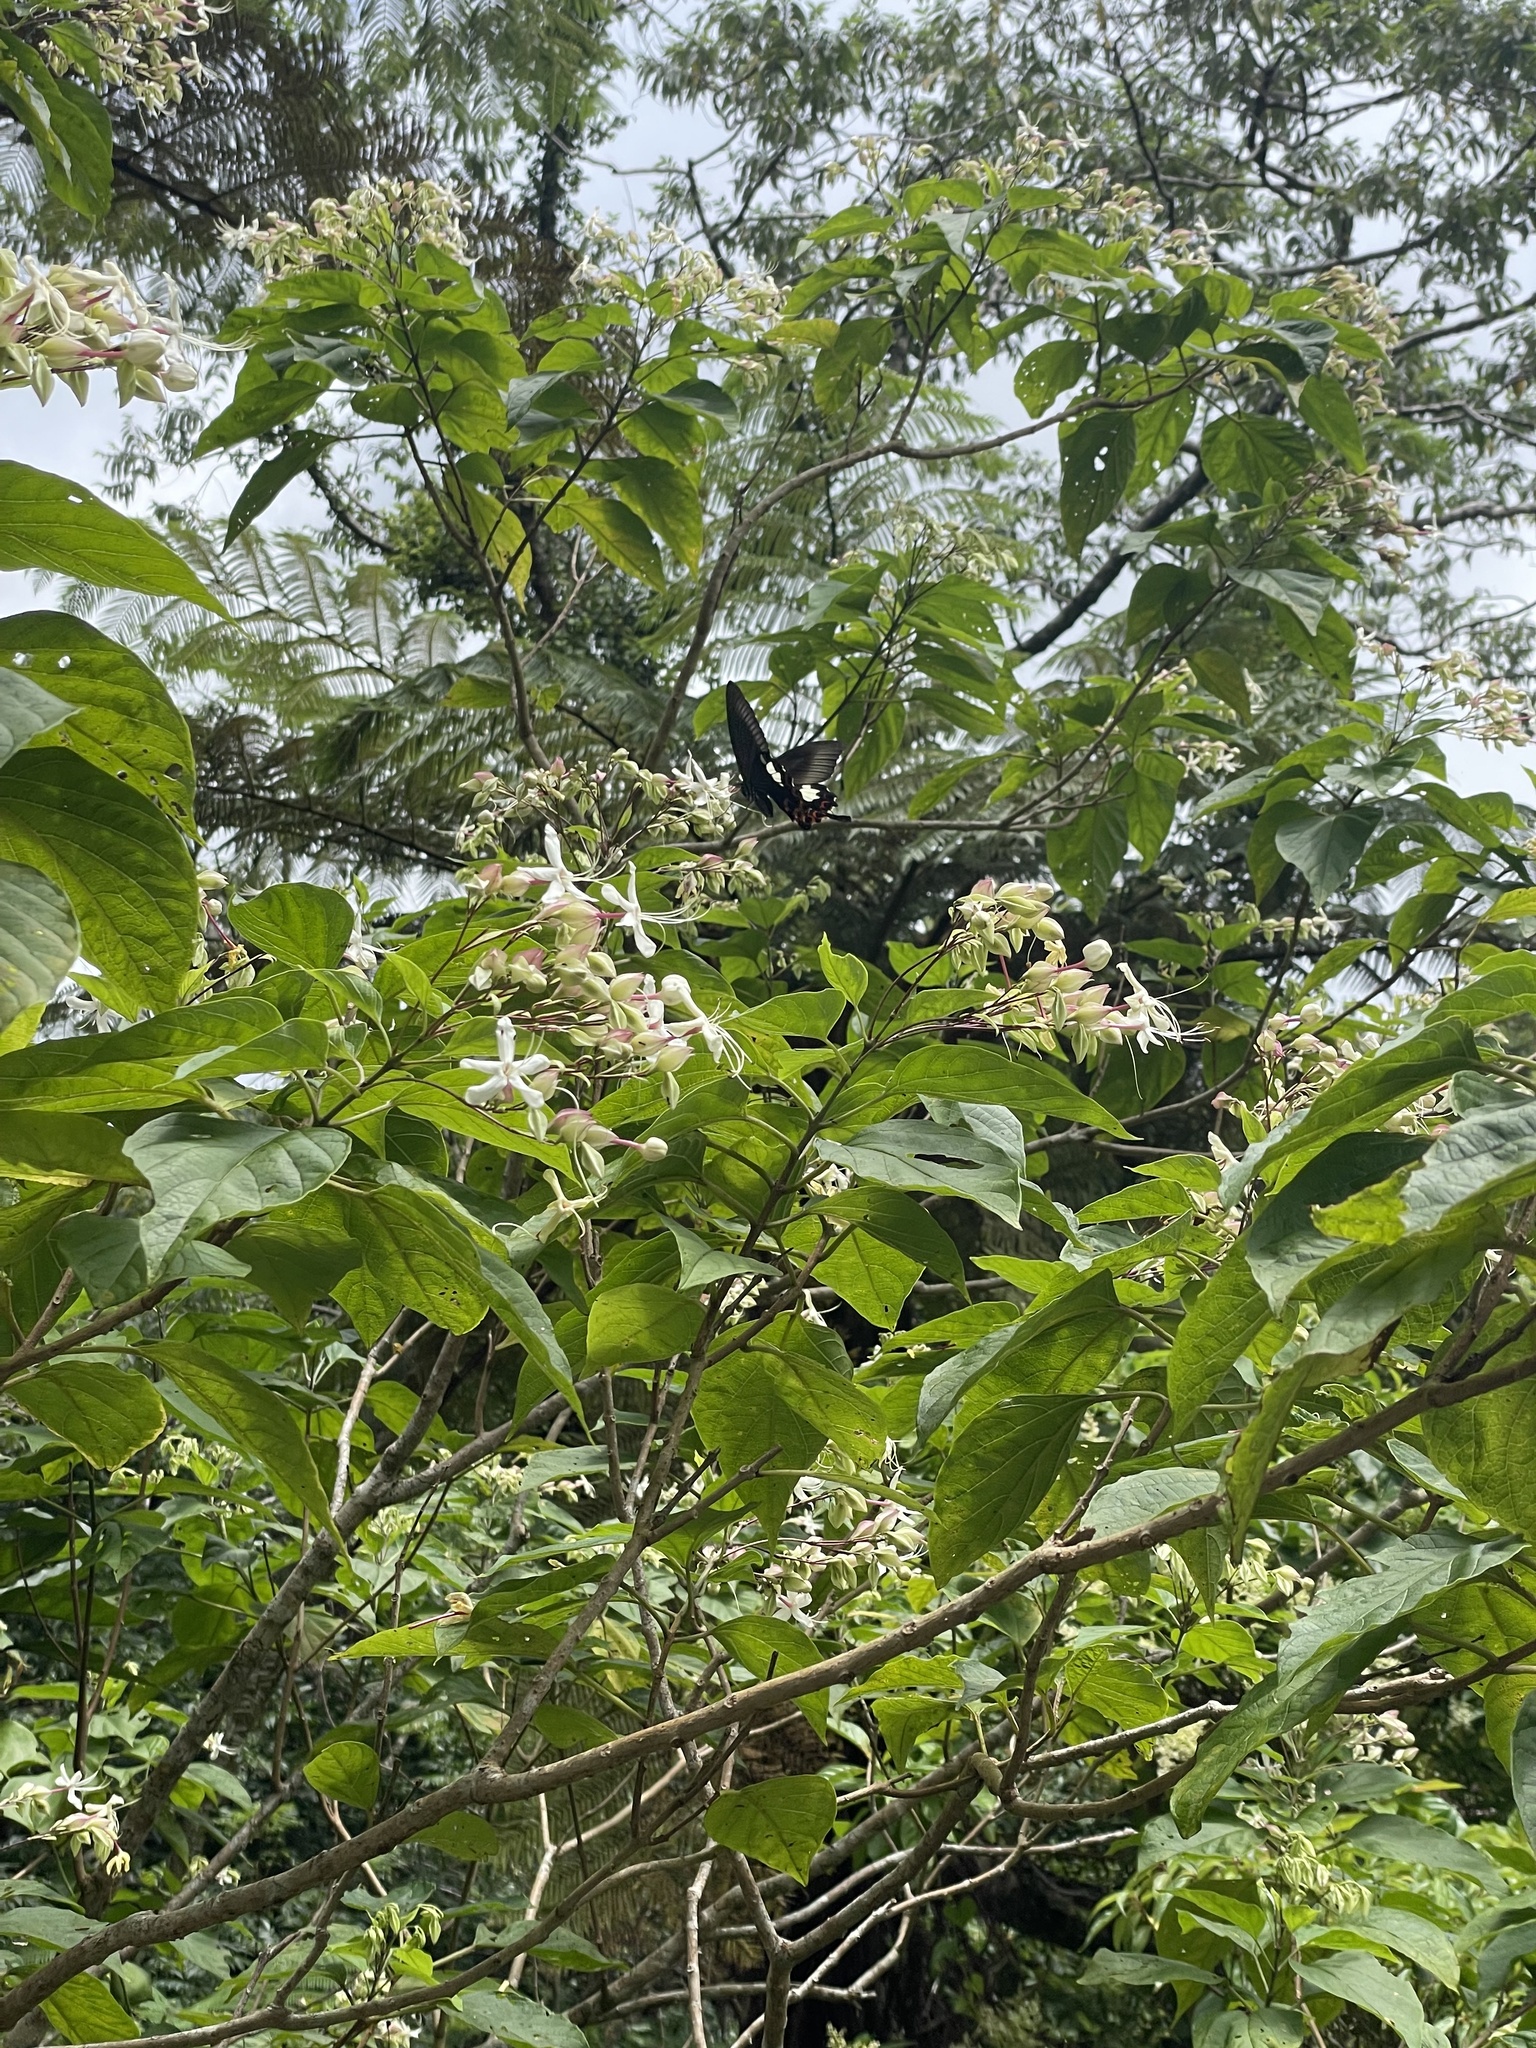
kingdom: Animalia
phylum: Arthropoda
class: Insecta
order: Lepidoptera
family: Papilionidae
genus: Papilio
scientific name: Papilio helenus
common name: Red helen
